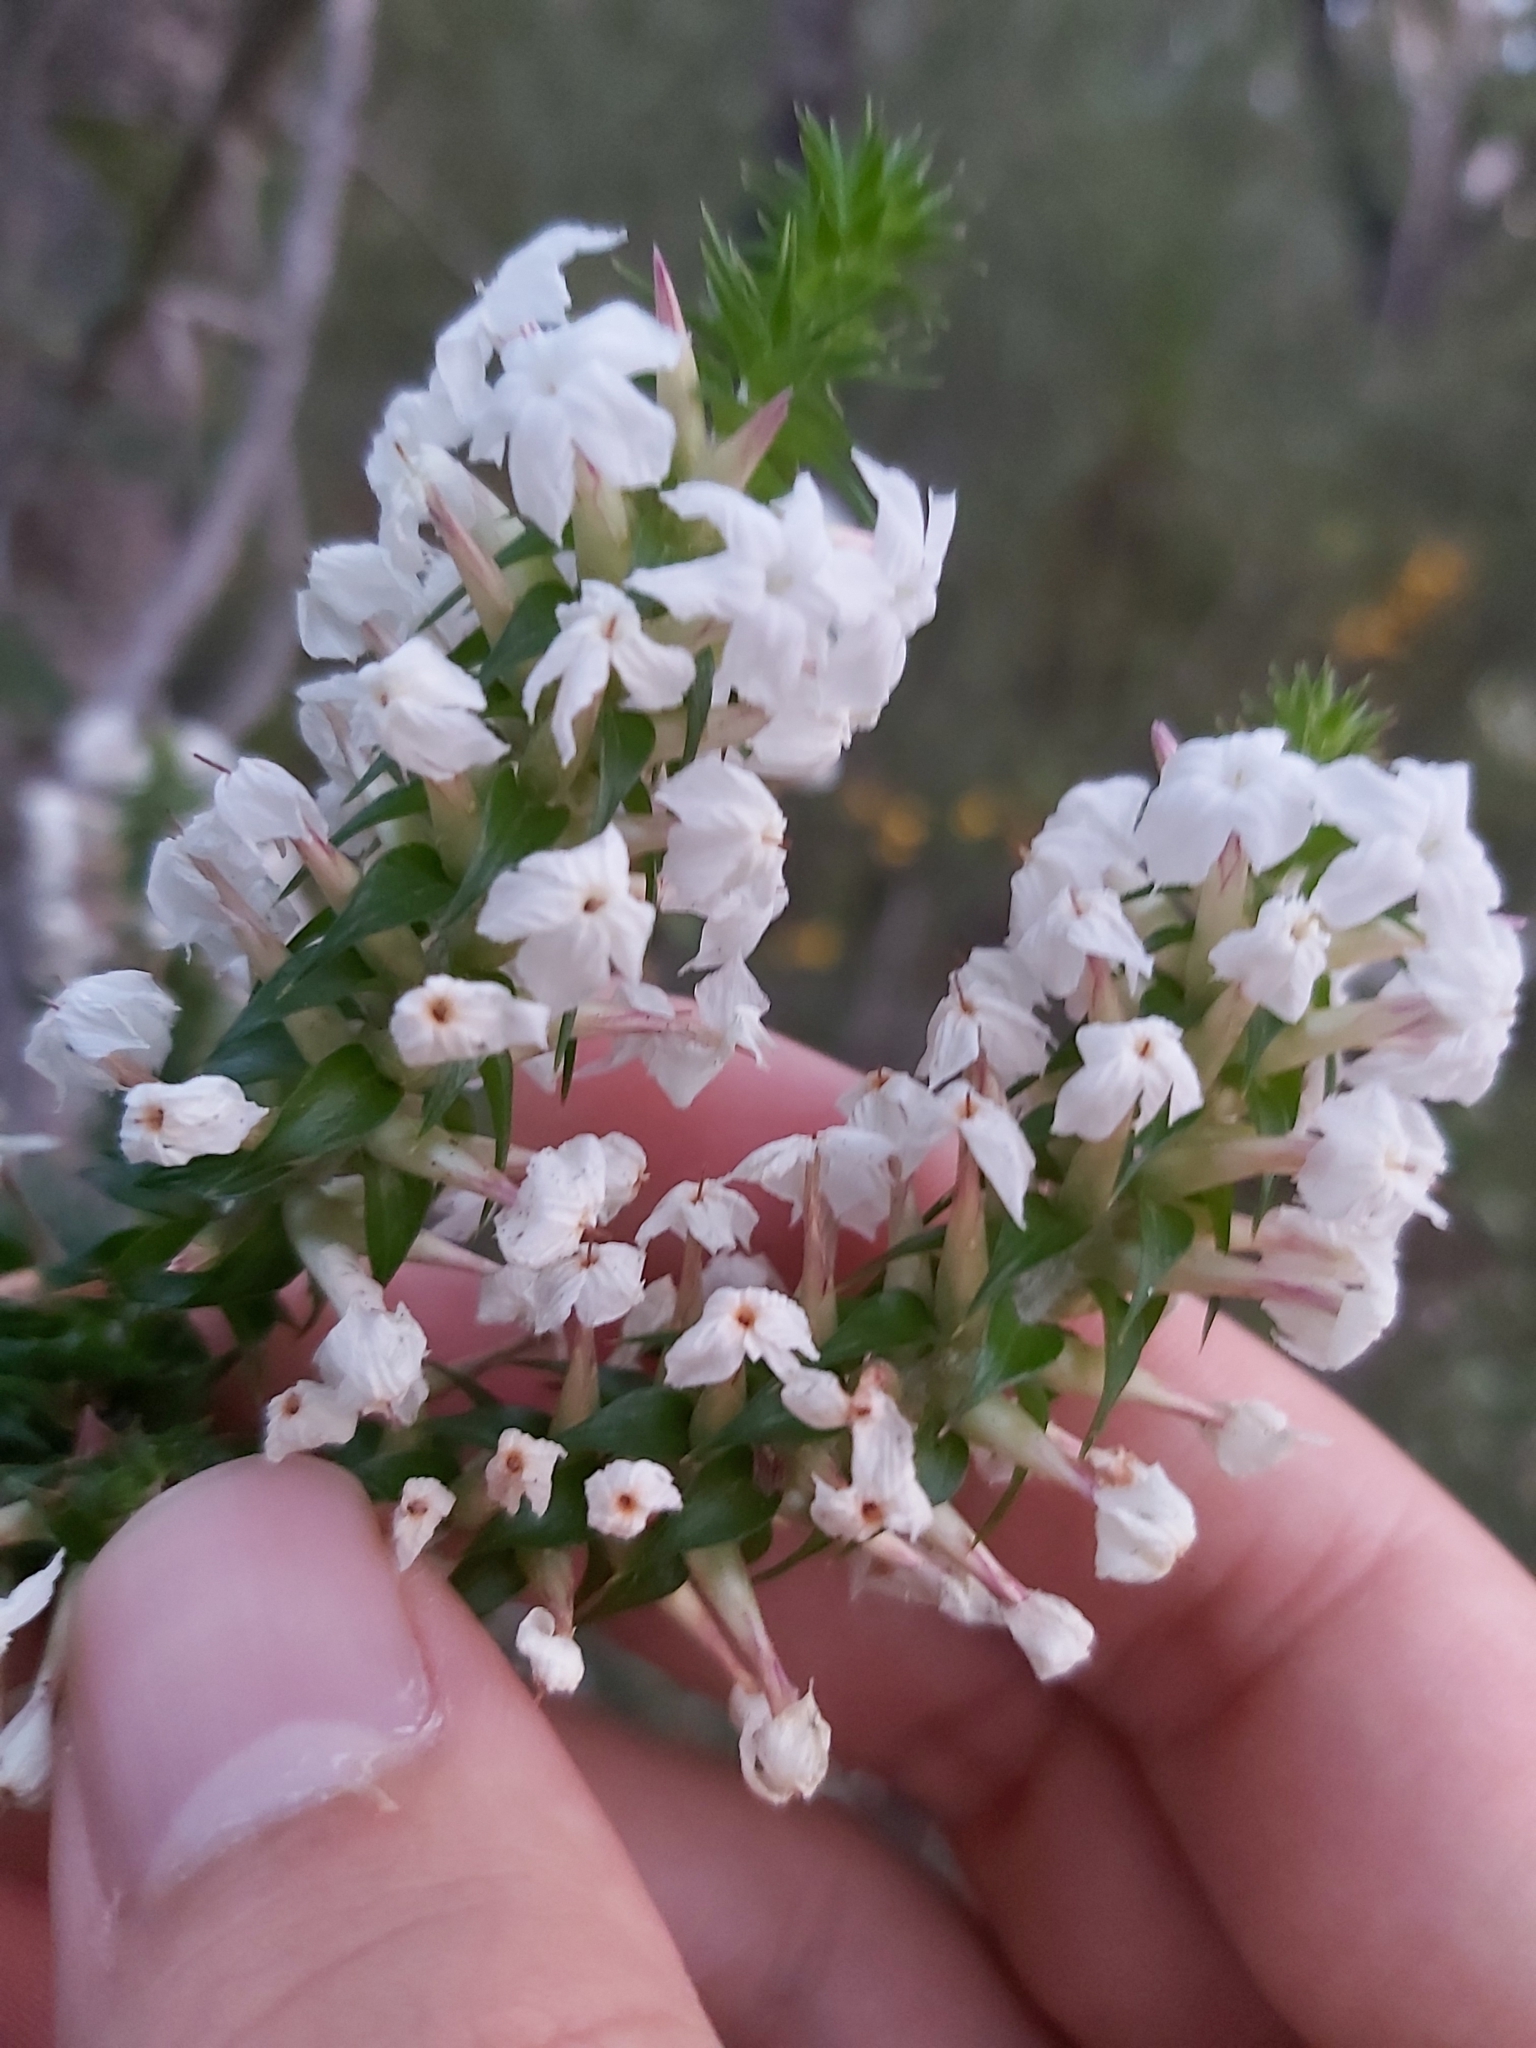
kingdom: Plantae
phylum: Tracheophyta
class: Magnoliopsida
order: Ericales
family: Ericaceae
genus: Woollsia
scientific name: Woollsia pungens
